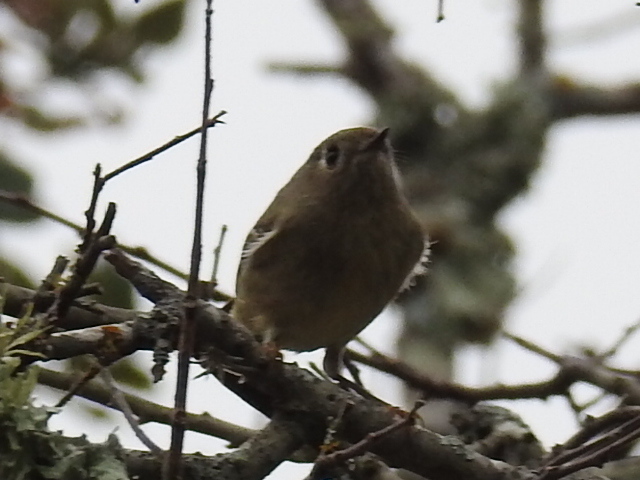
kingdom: Animalia
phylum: Chordata
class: Aves
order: Passeriformes
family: Regulidae
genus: Regulus
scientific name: Regulus calendula
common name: Ruby-crowned kinglet
